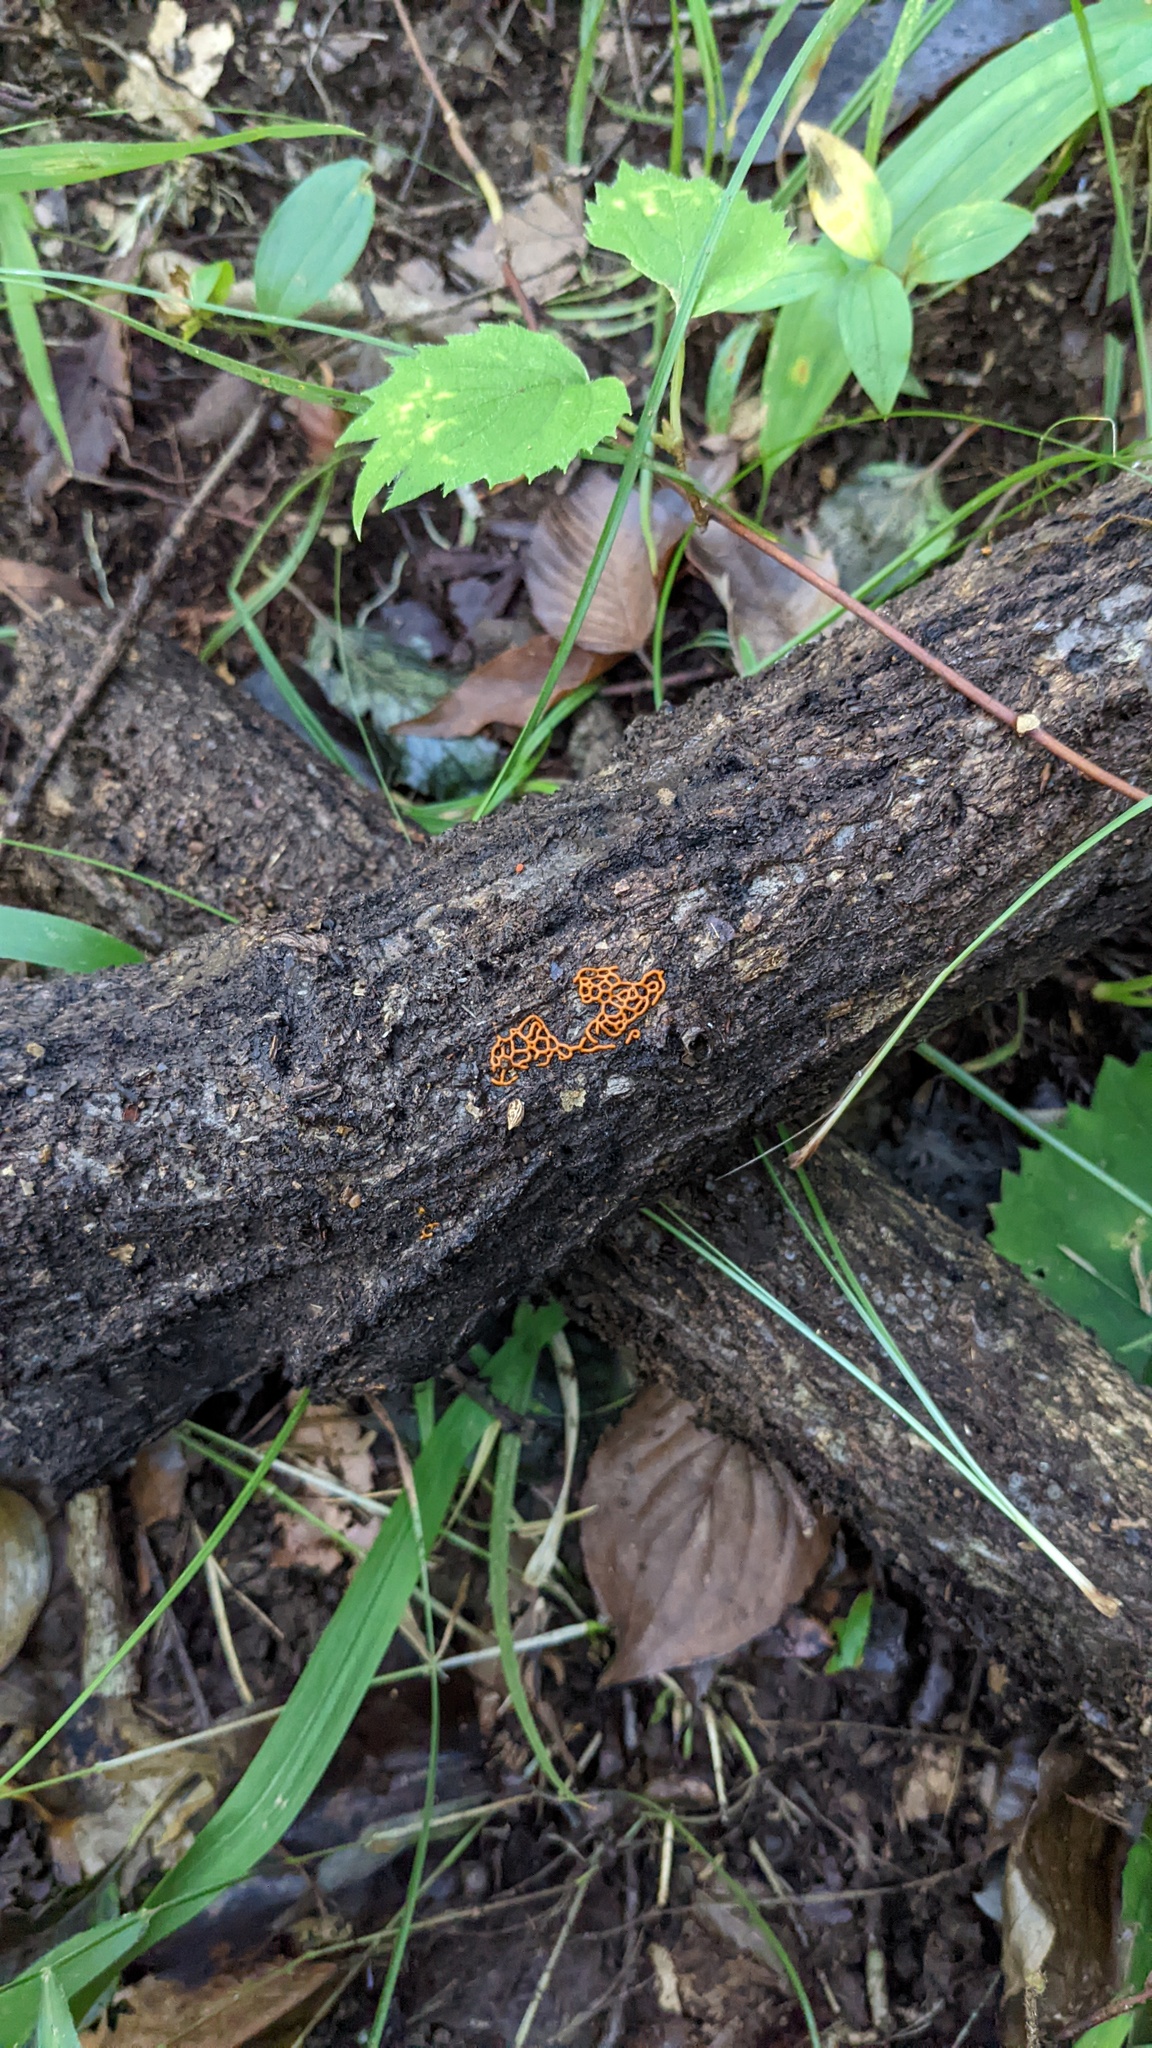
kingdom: Protozoa
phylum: Mycetozoa
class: Myxomycetes
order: Trichiales
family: Arcyriaceae
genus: Hemitrichia
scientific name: Hemitrichia serpula
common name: Pretzel slime mold
